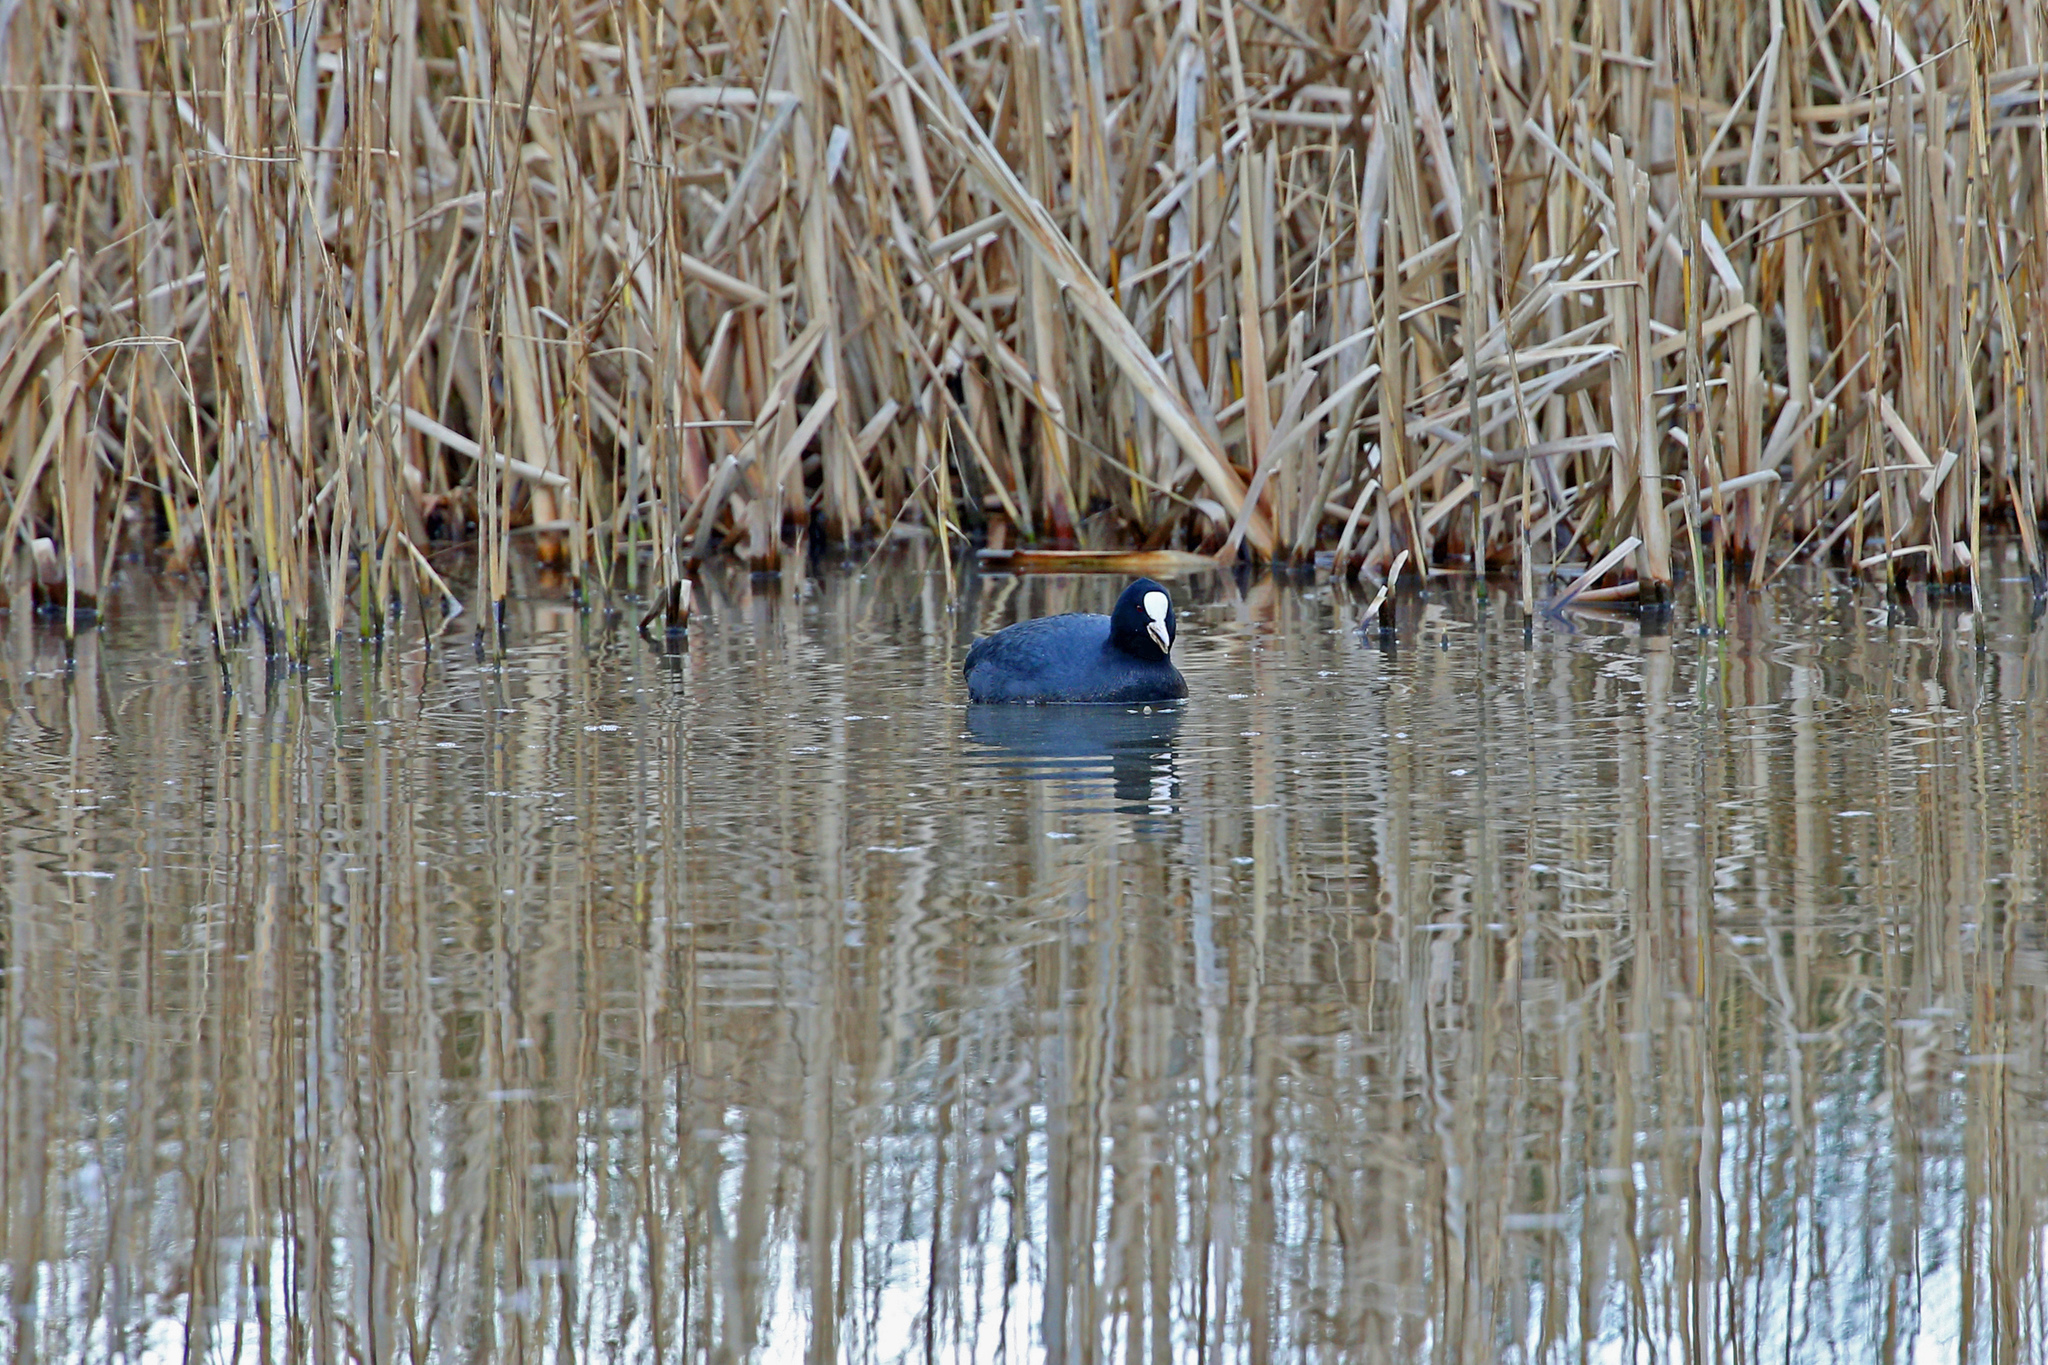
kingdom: Animalia
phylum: Chordata
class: Aves
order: Gruiformes
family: Rallidae
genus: Fulica
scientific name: Fulica atra
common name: Eurasian coot
